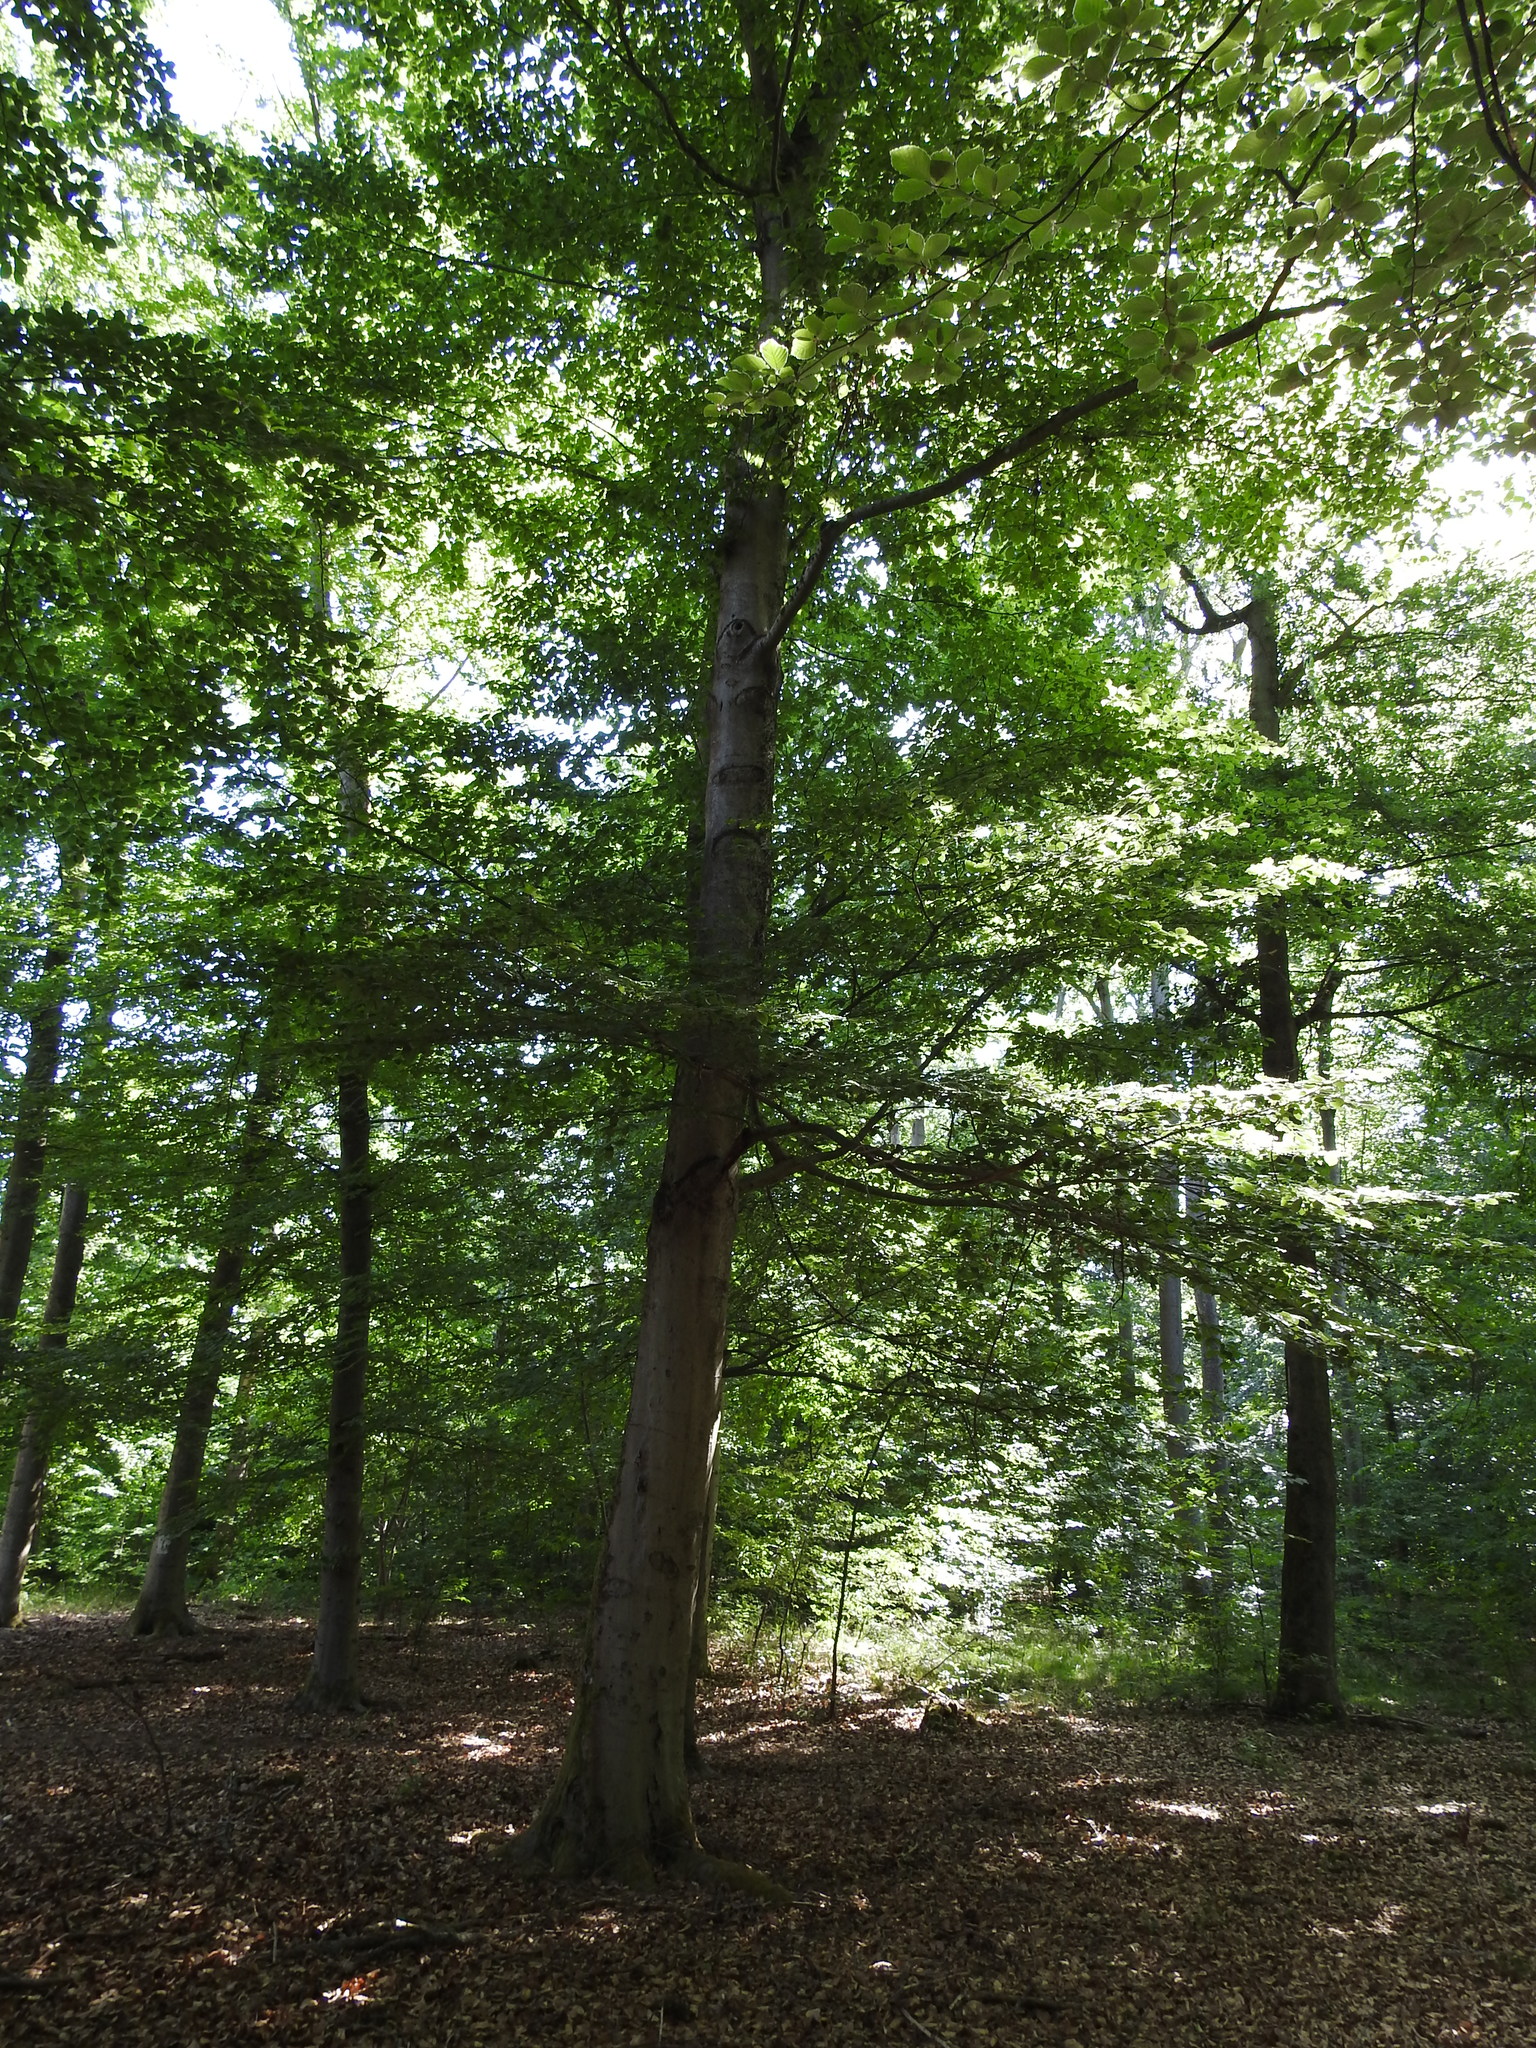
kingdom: Plantae
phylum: Tracheophyta
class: Magnoliopsida
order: Fagales
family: Fagaceae
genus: Fagus
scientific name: Fagus sylvatica
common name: Beech
